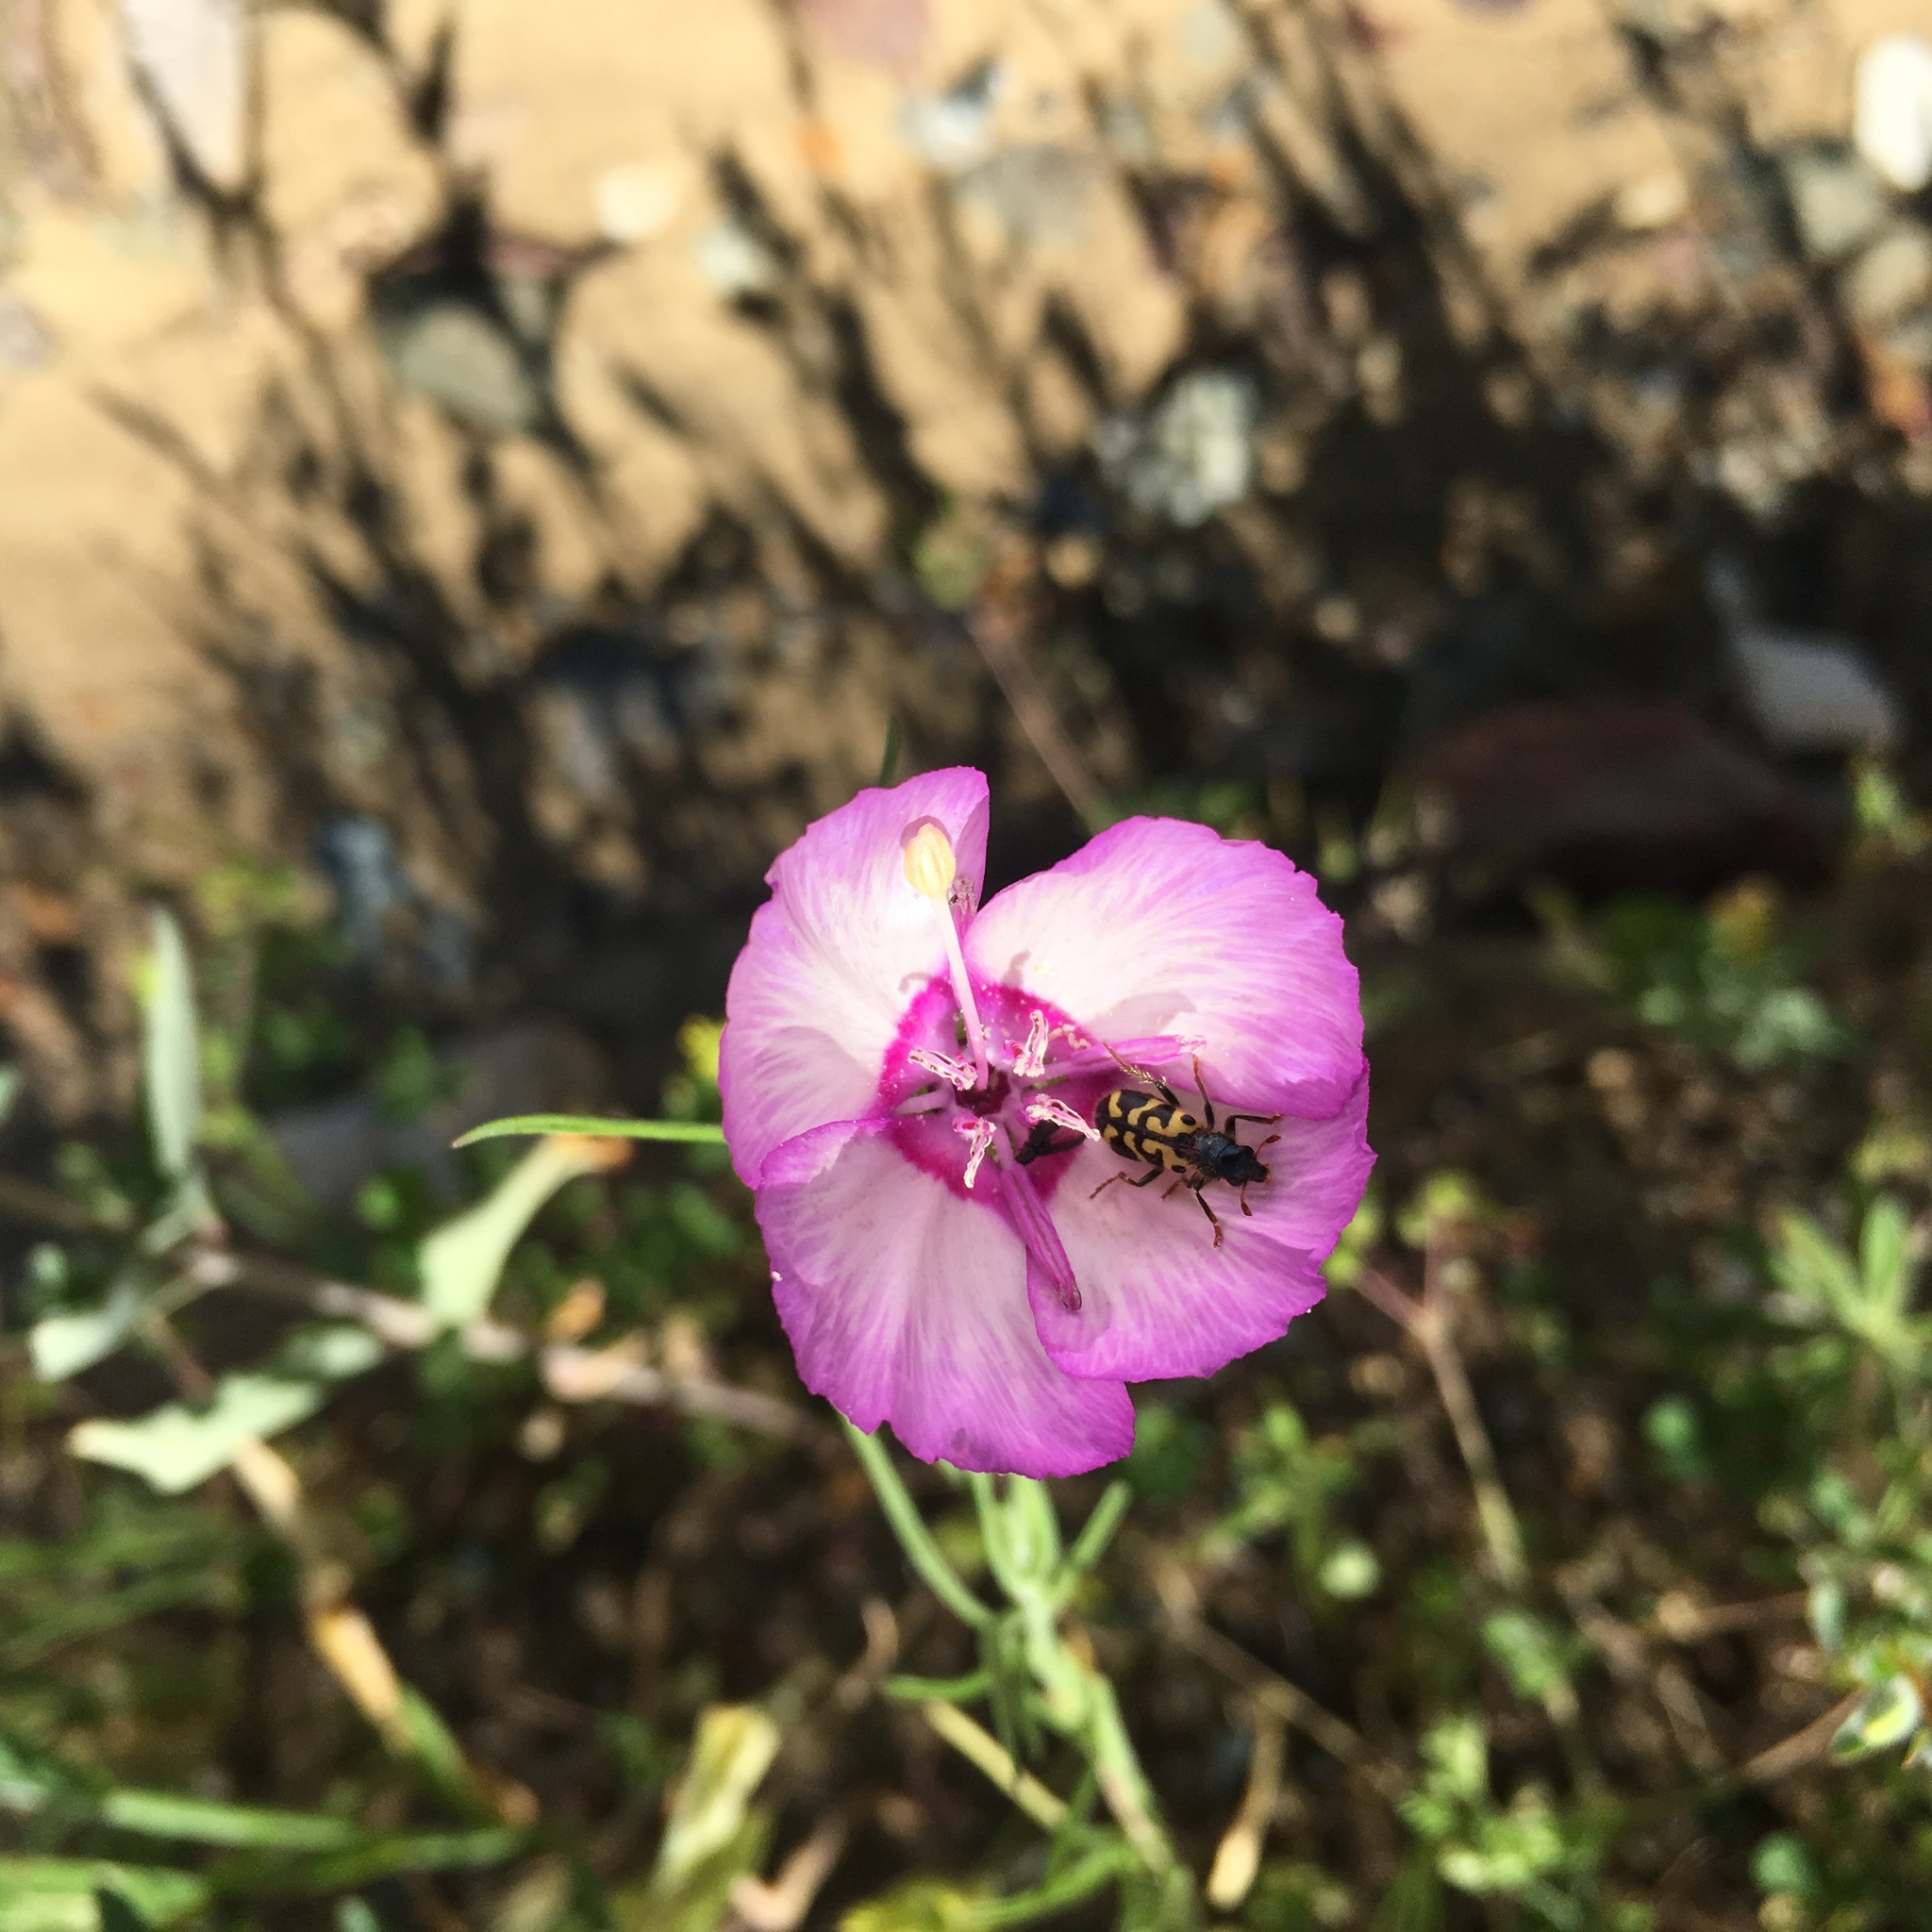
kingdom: Animalia
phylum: Arthropoda
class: Insecta
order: Coleoptera
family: Cleridae
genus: Trichodes
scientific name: Trichodes ornatus
